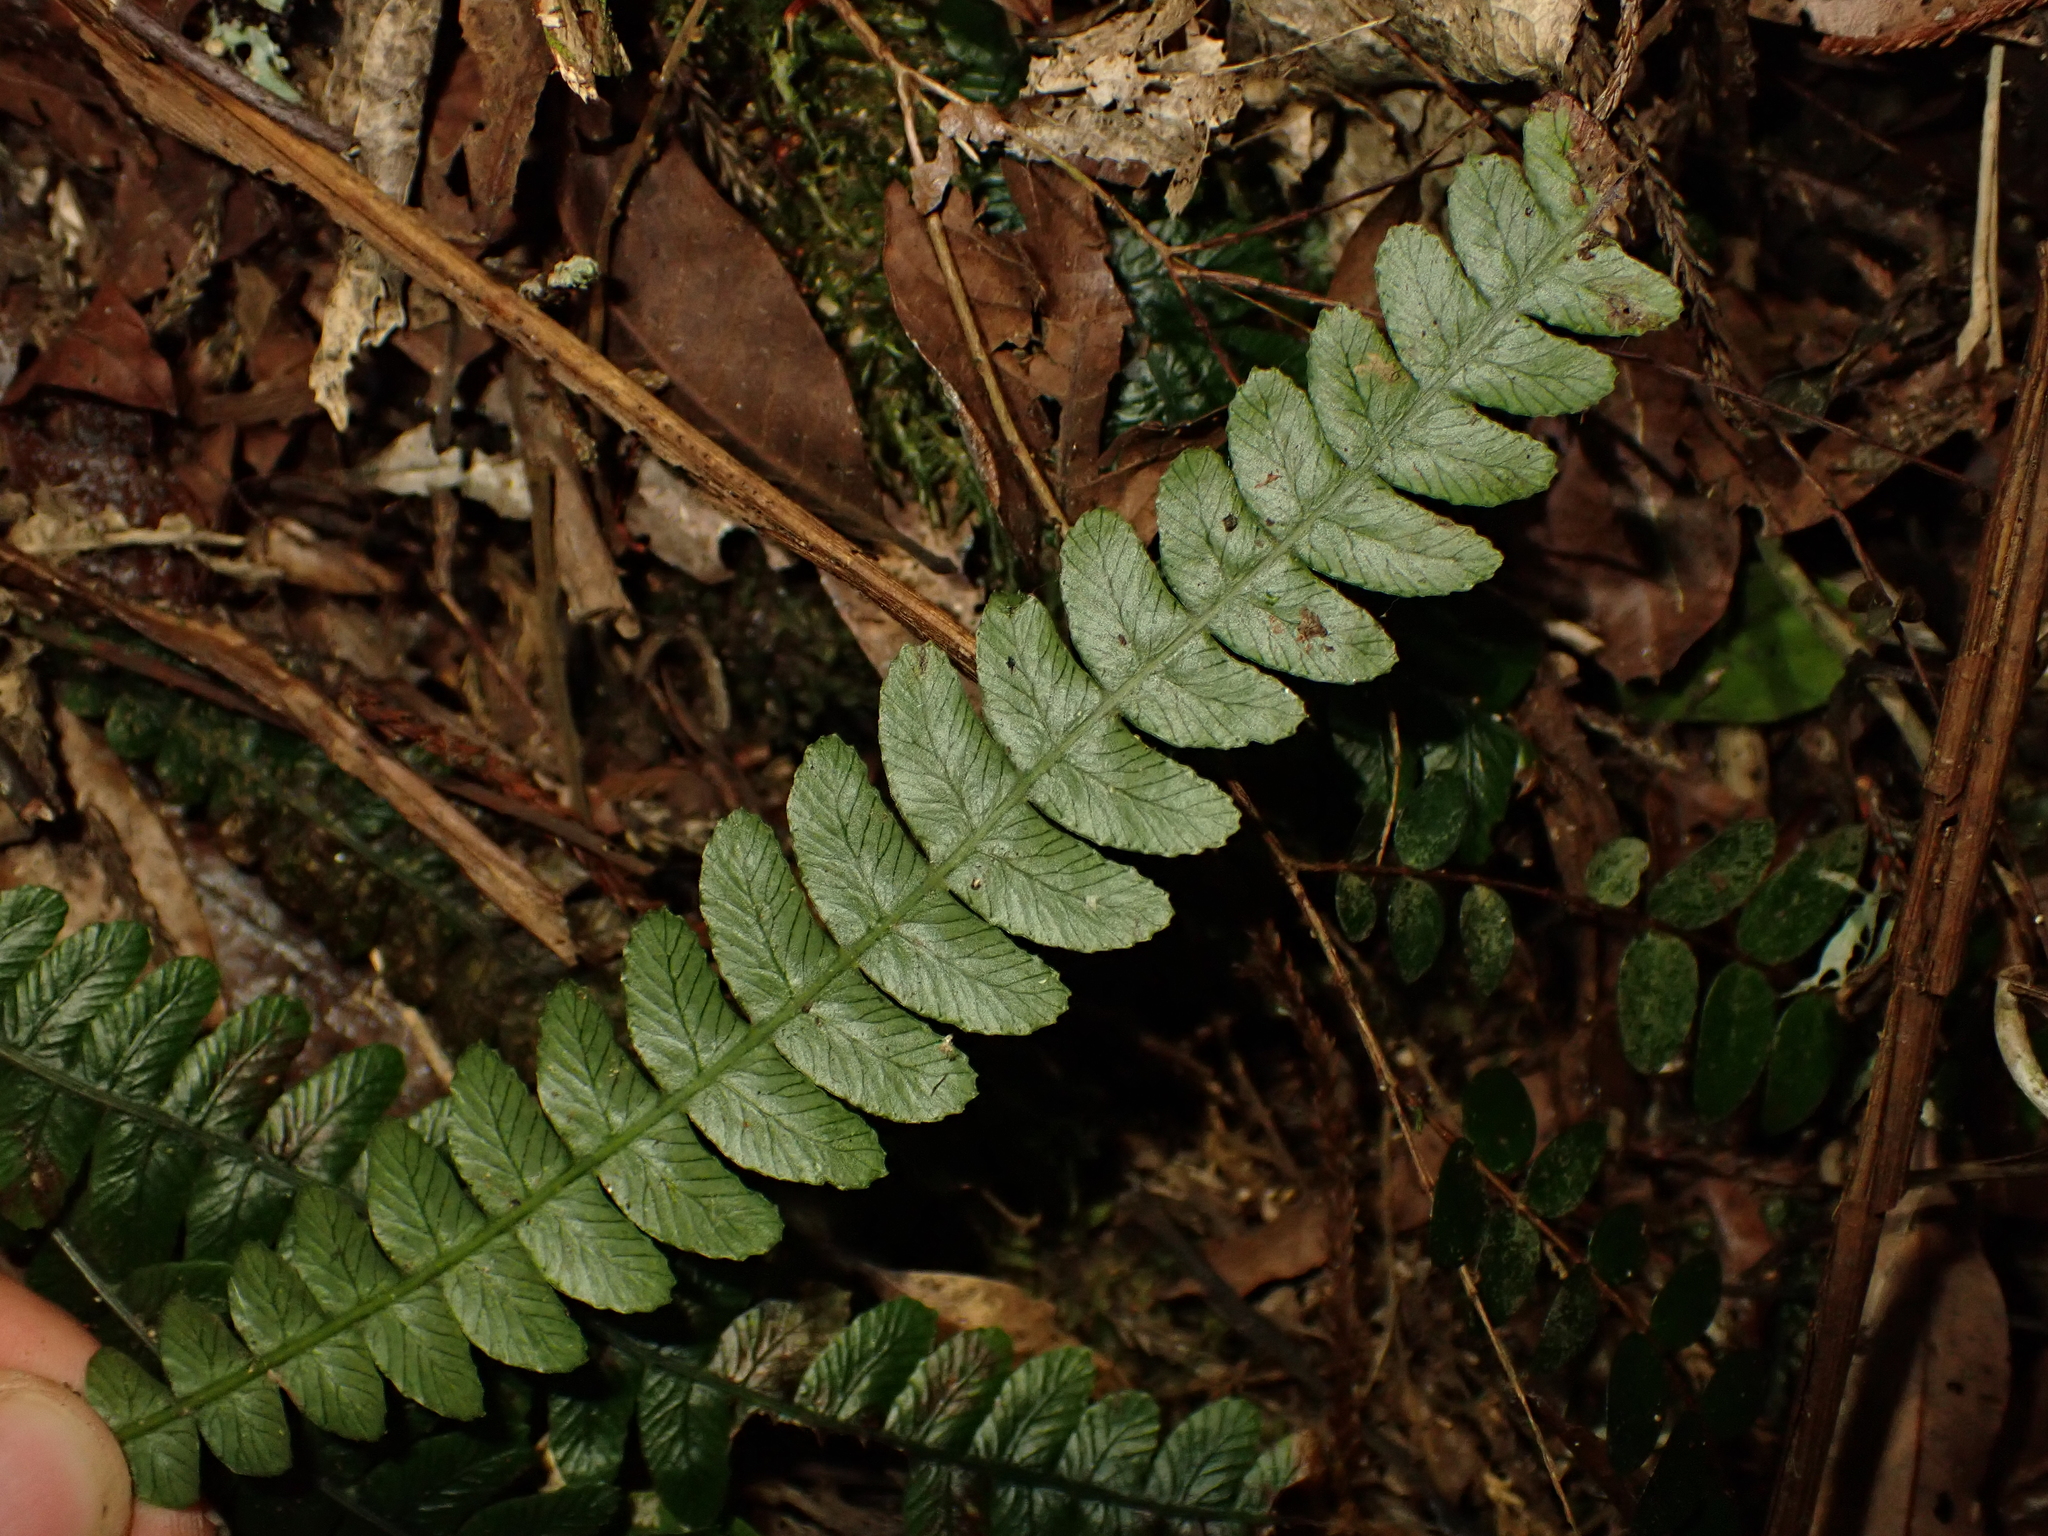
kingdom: Plantae
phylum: Tracheophyta
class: Polypodiopsida
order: Polypodiales
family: Blechnaceae
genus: Austroblechnum
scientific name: Austroblechnum membranaceum
